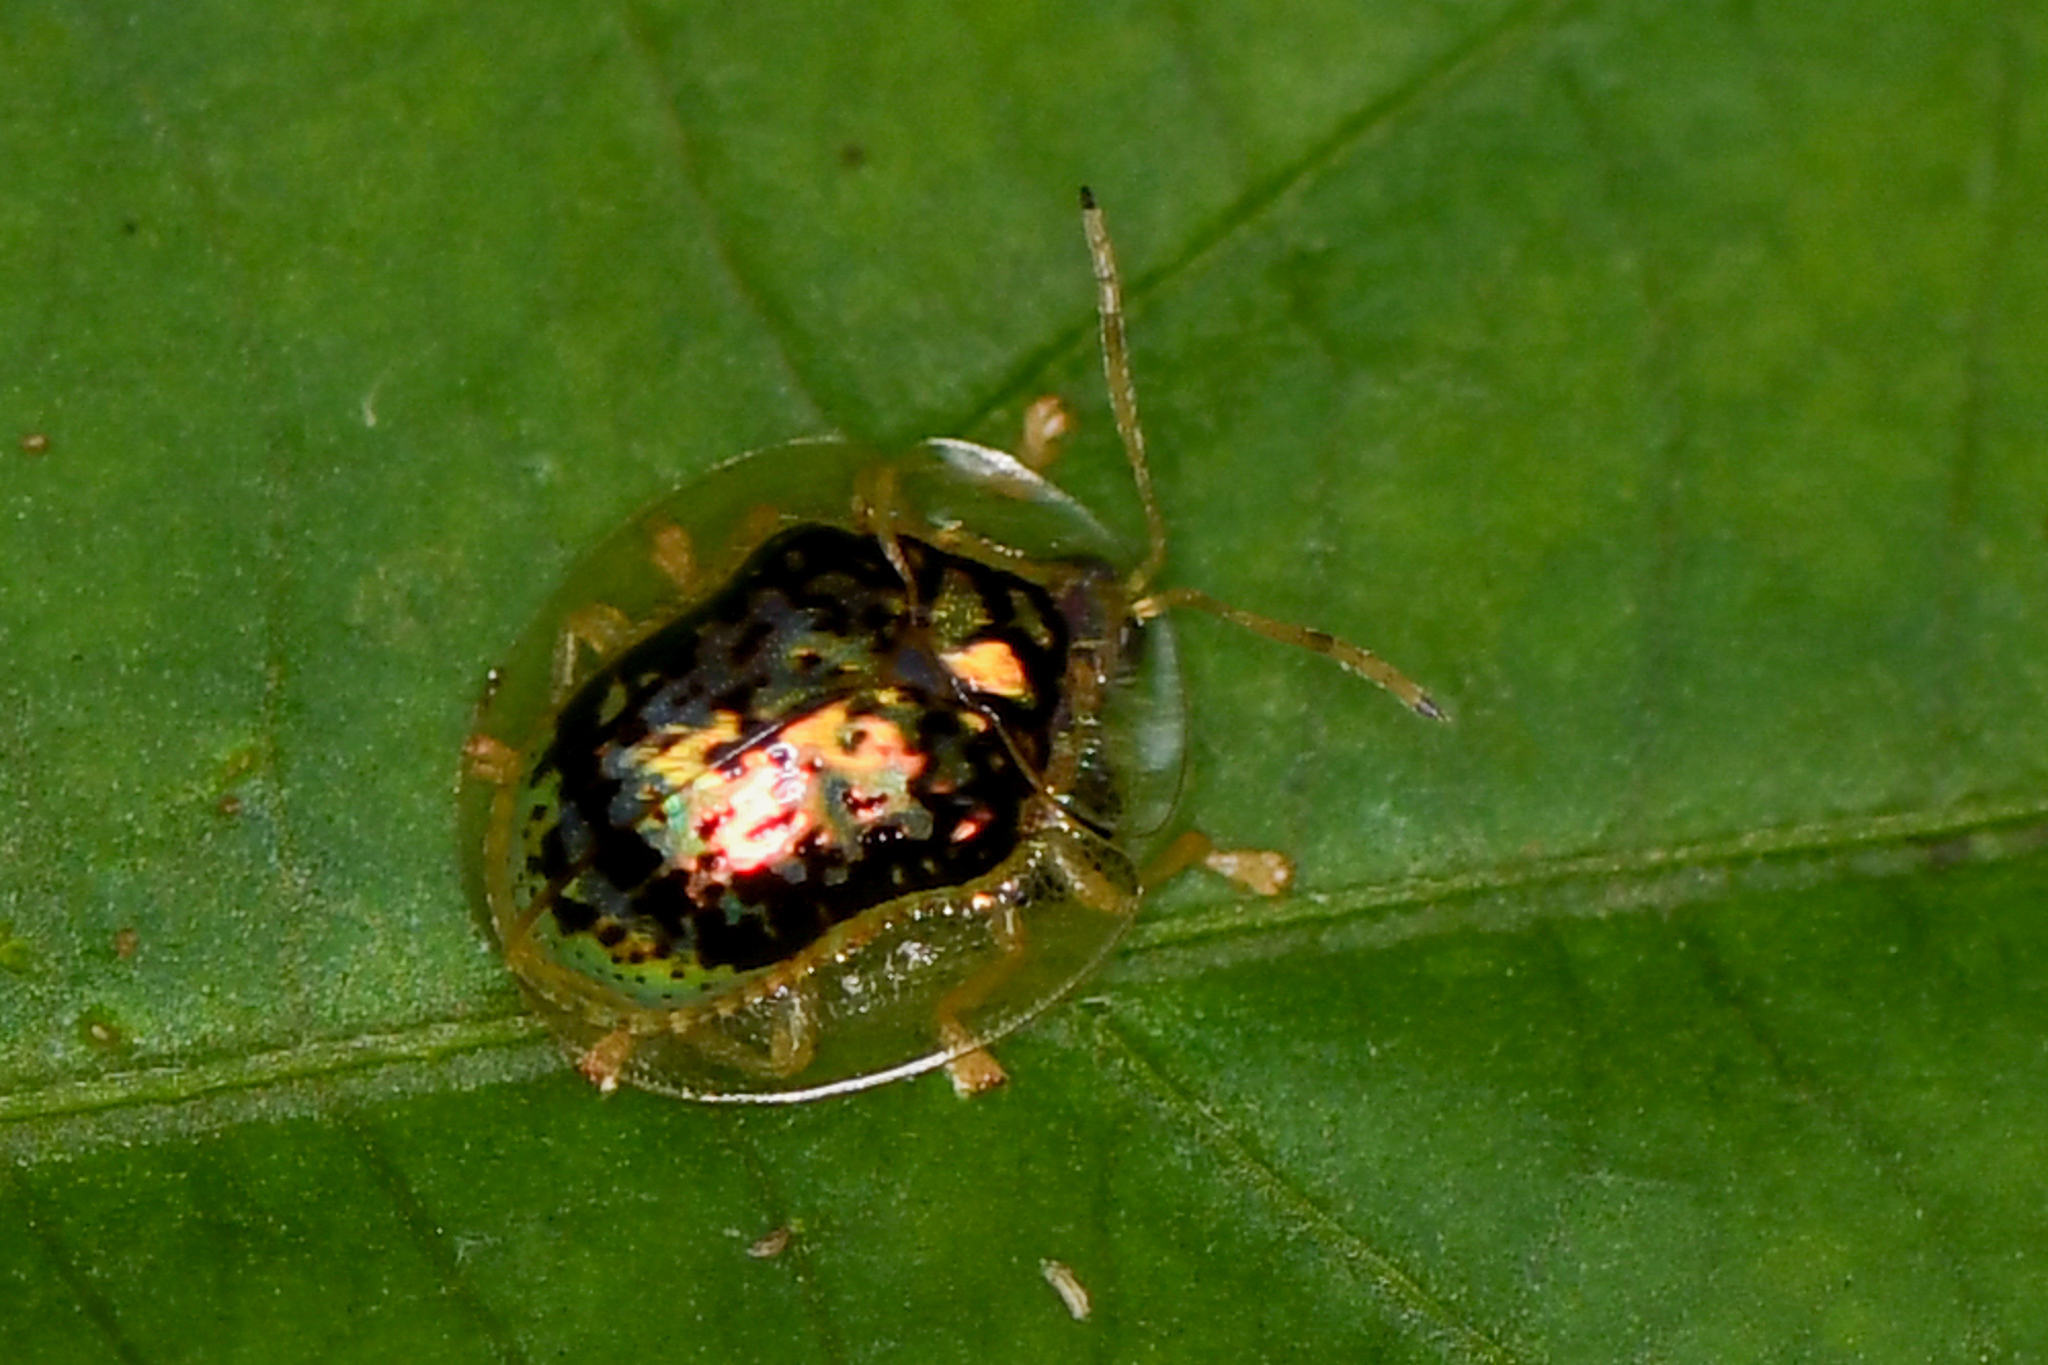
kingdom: Animalia
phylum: Arthropoda
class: Insecta
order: Coleoptera
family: Chrysomelidae
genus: Microctenochira
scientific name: Microctenochira hieroglyphica
